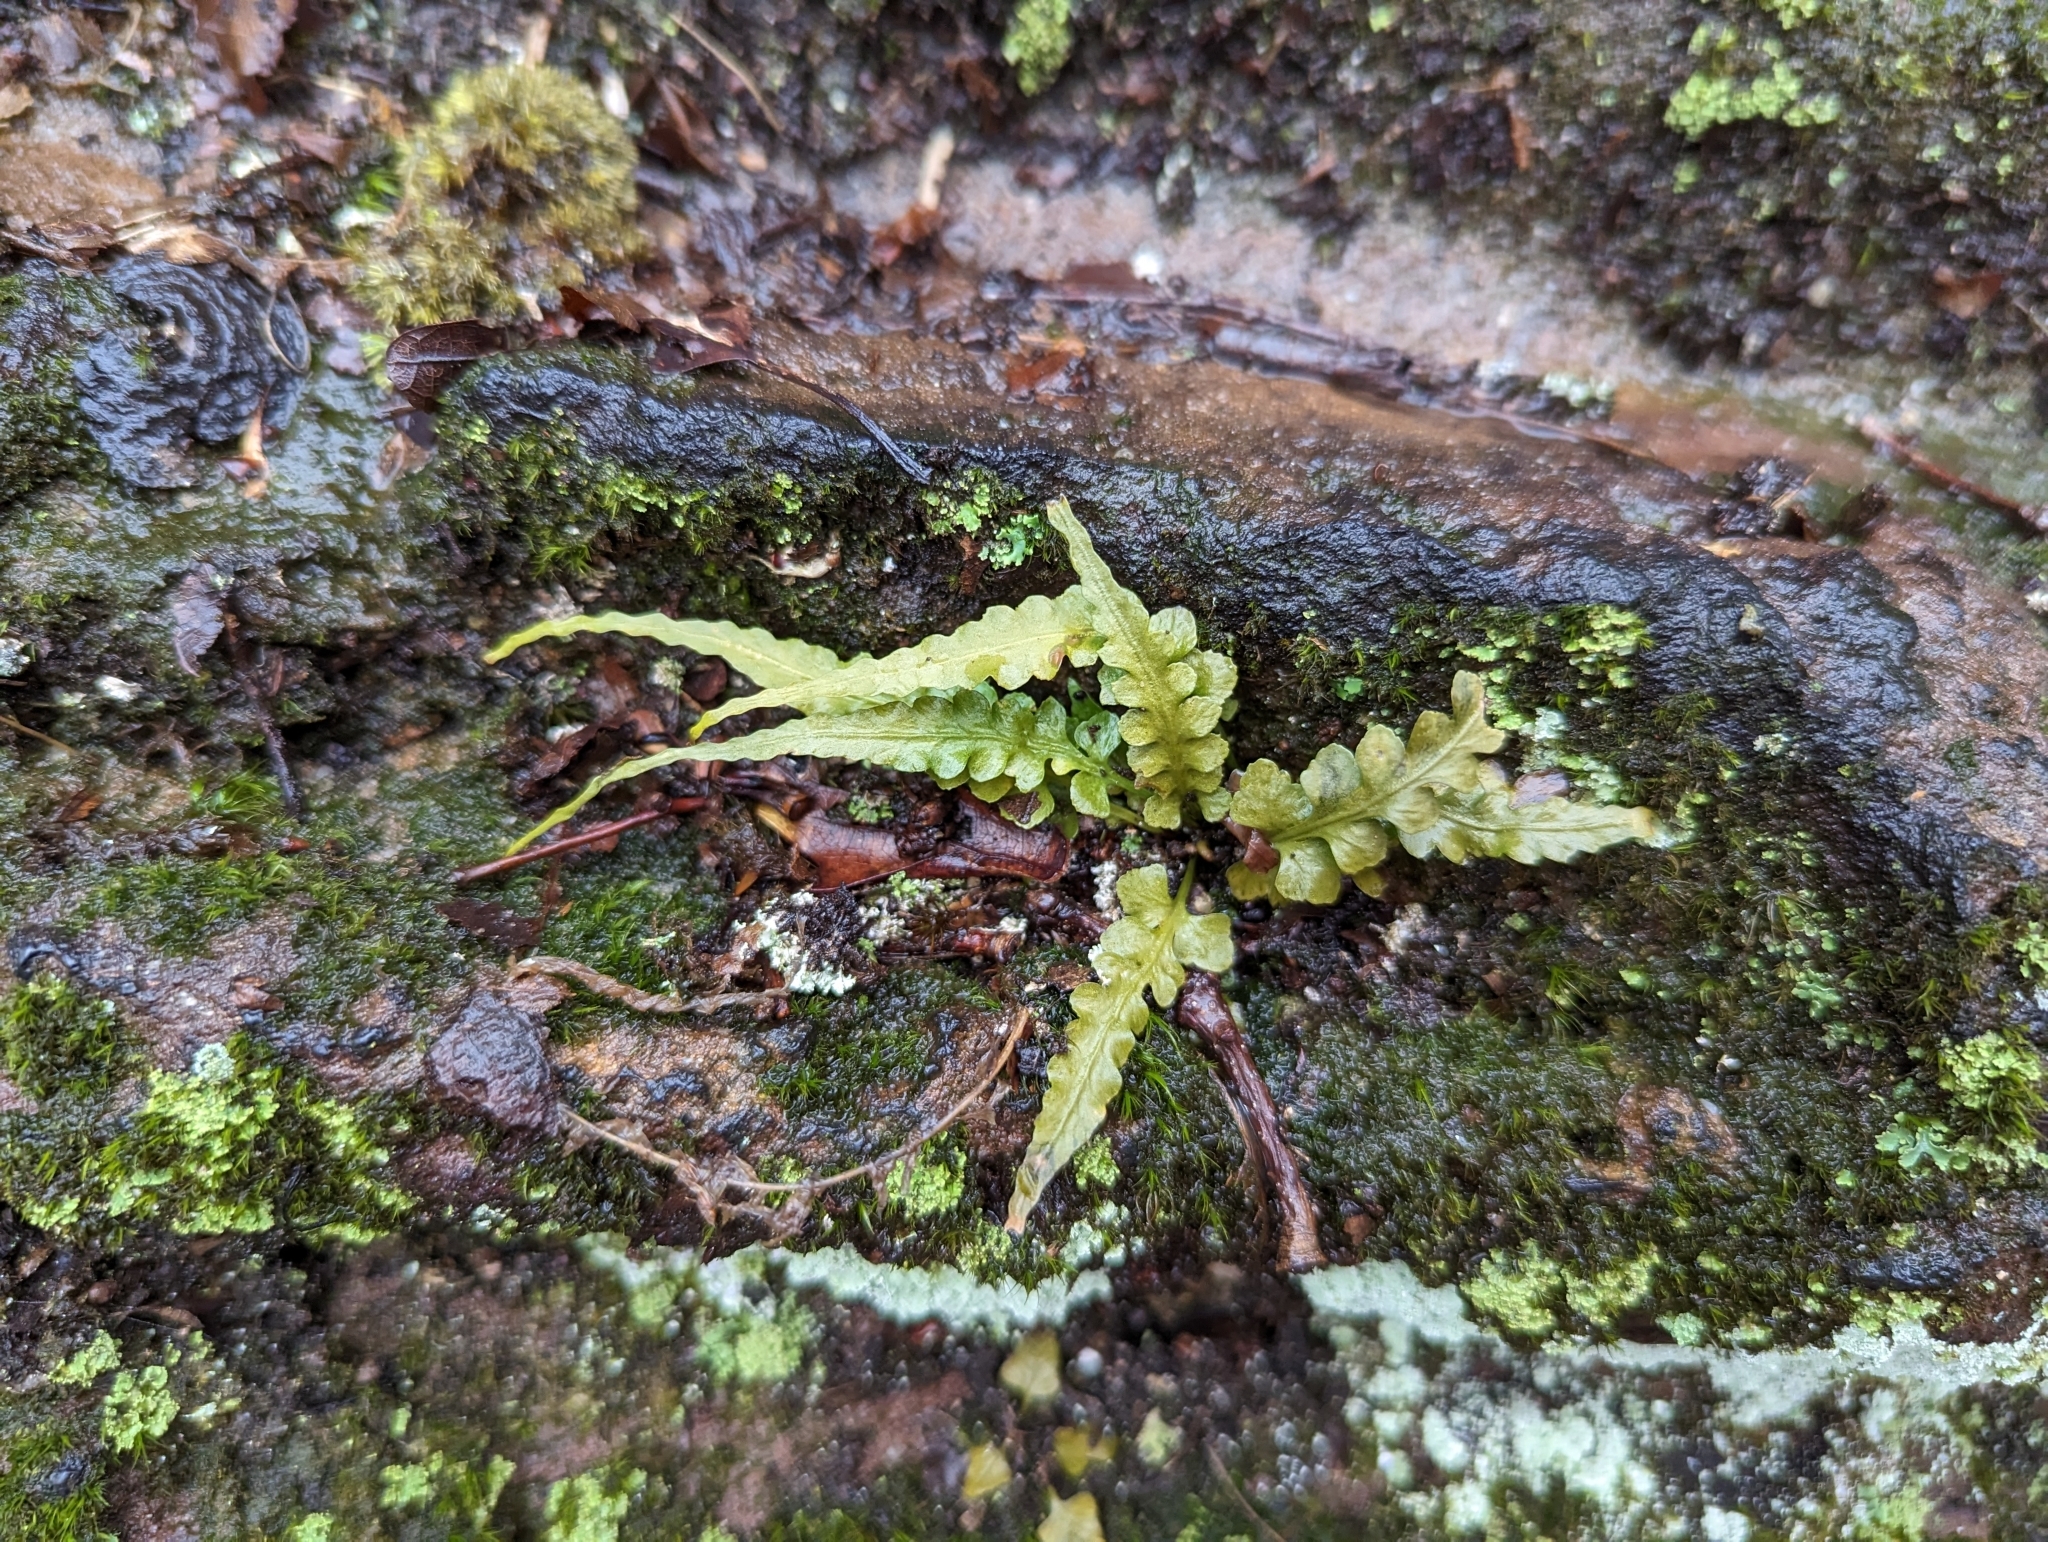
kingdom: Plantae
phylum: Tracheophyta
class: Polypodiopsida
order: Polypodiales
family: Aspleniaceae
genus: Asplenium
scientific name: Asplenium pinnatifidum
